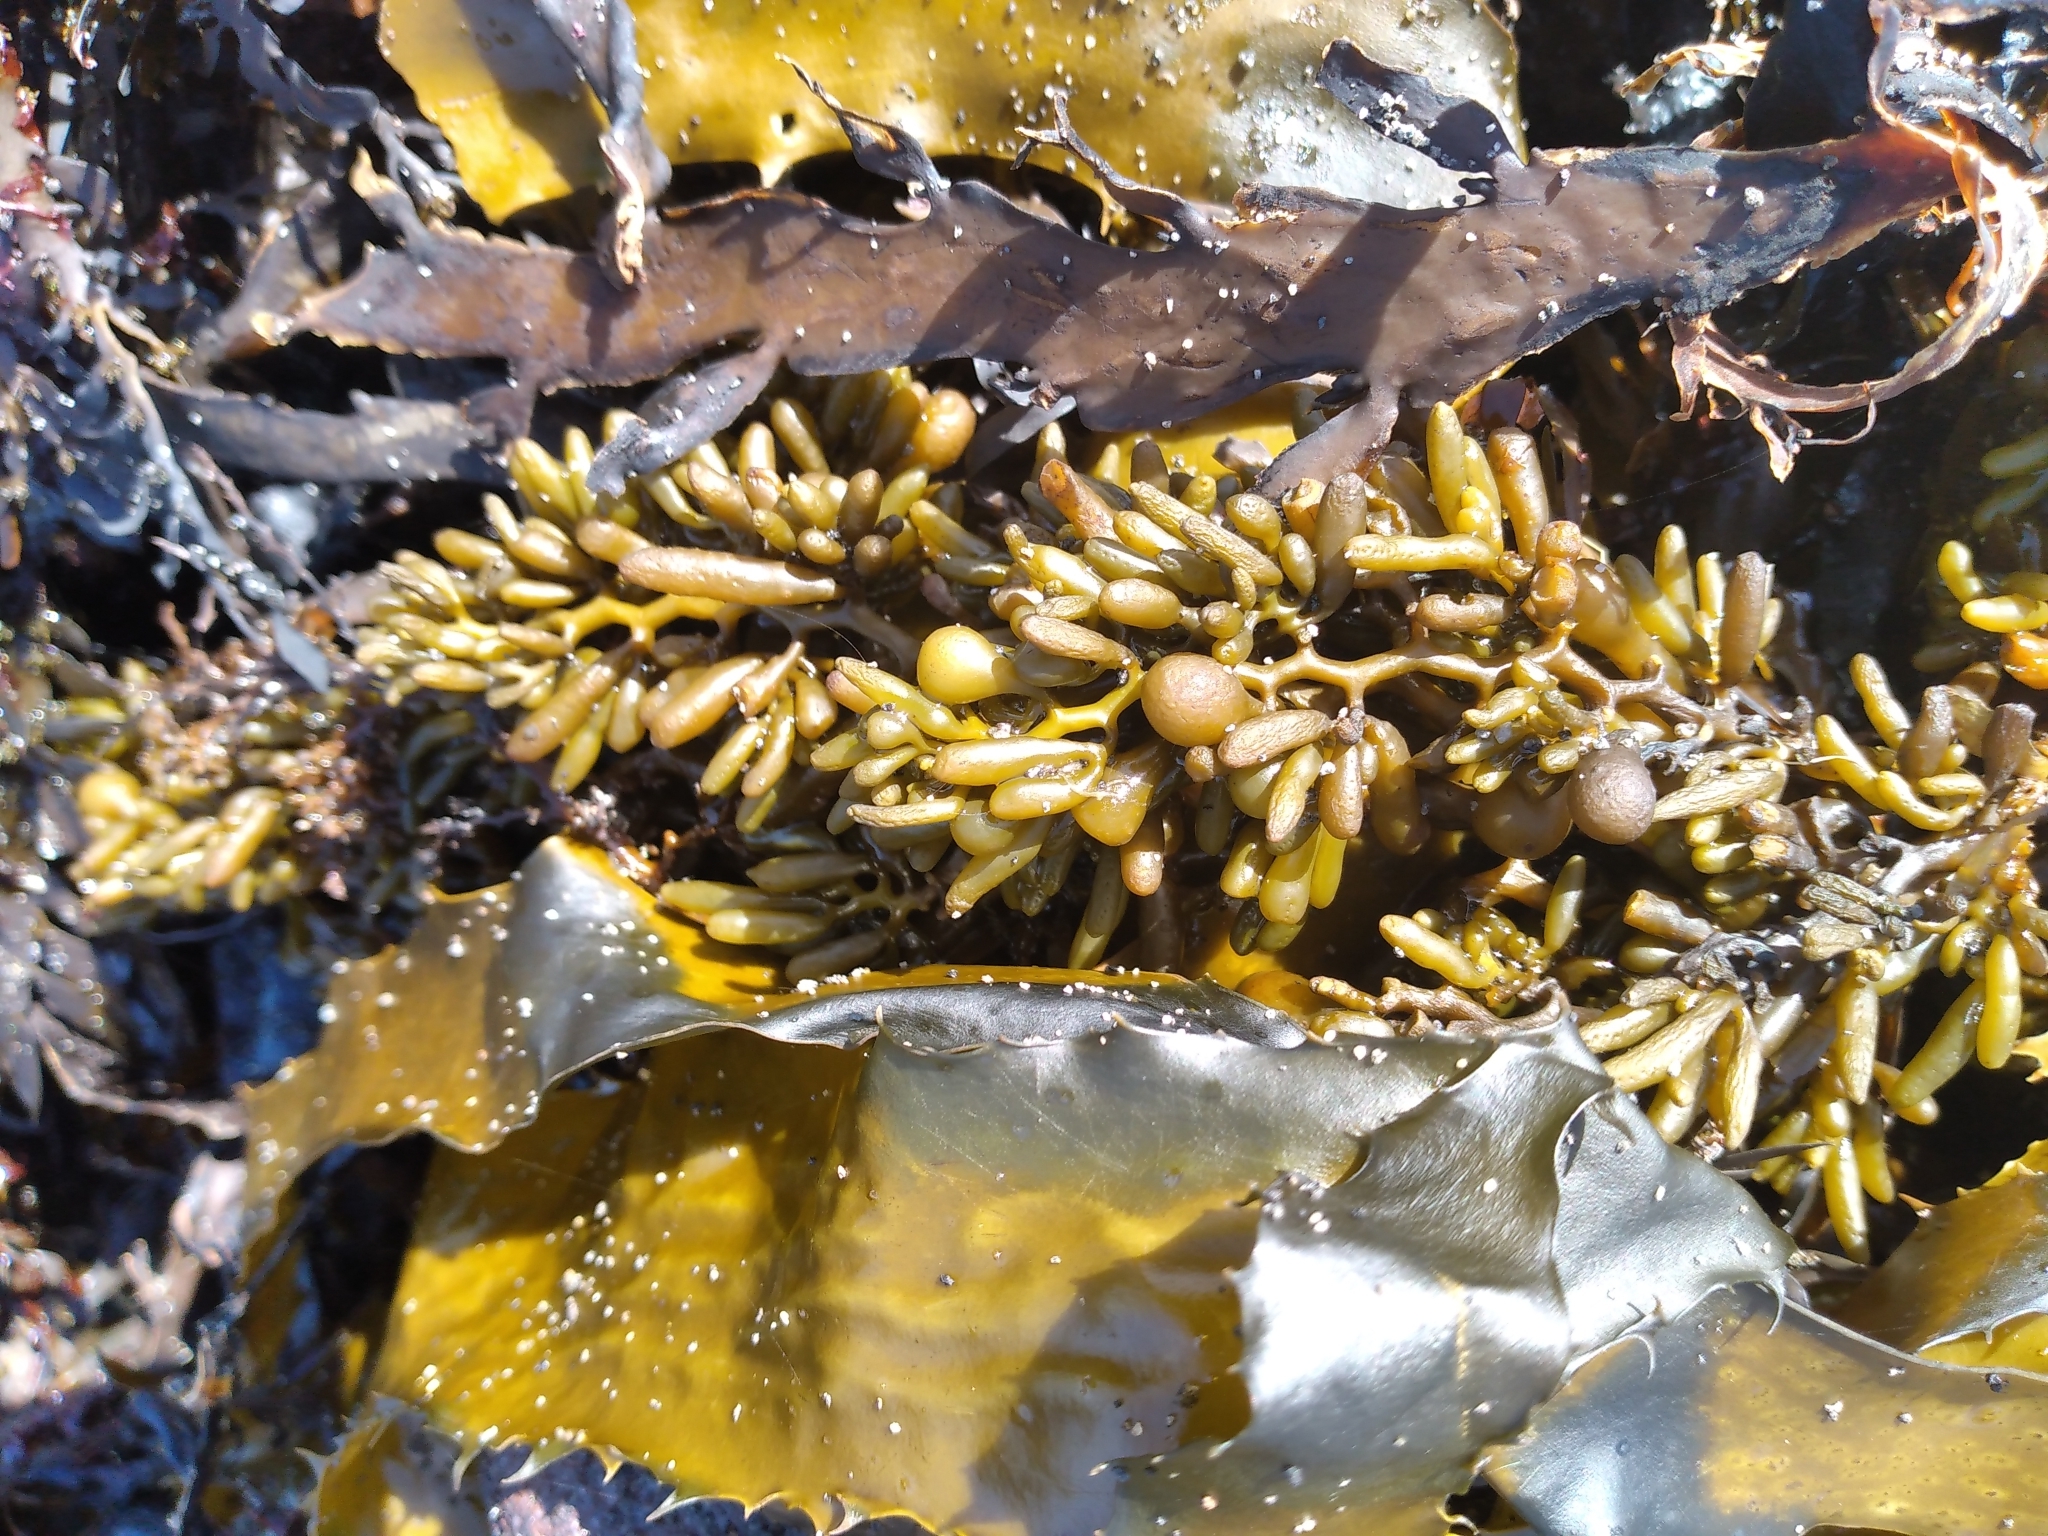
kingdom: Chromista
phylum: Ochrophyta
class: Phaeophyceae
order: Fucales
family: Sargassaceae
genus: Cystophora
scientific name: Cystophora torulosa
